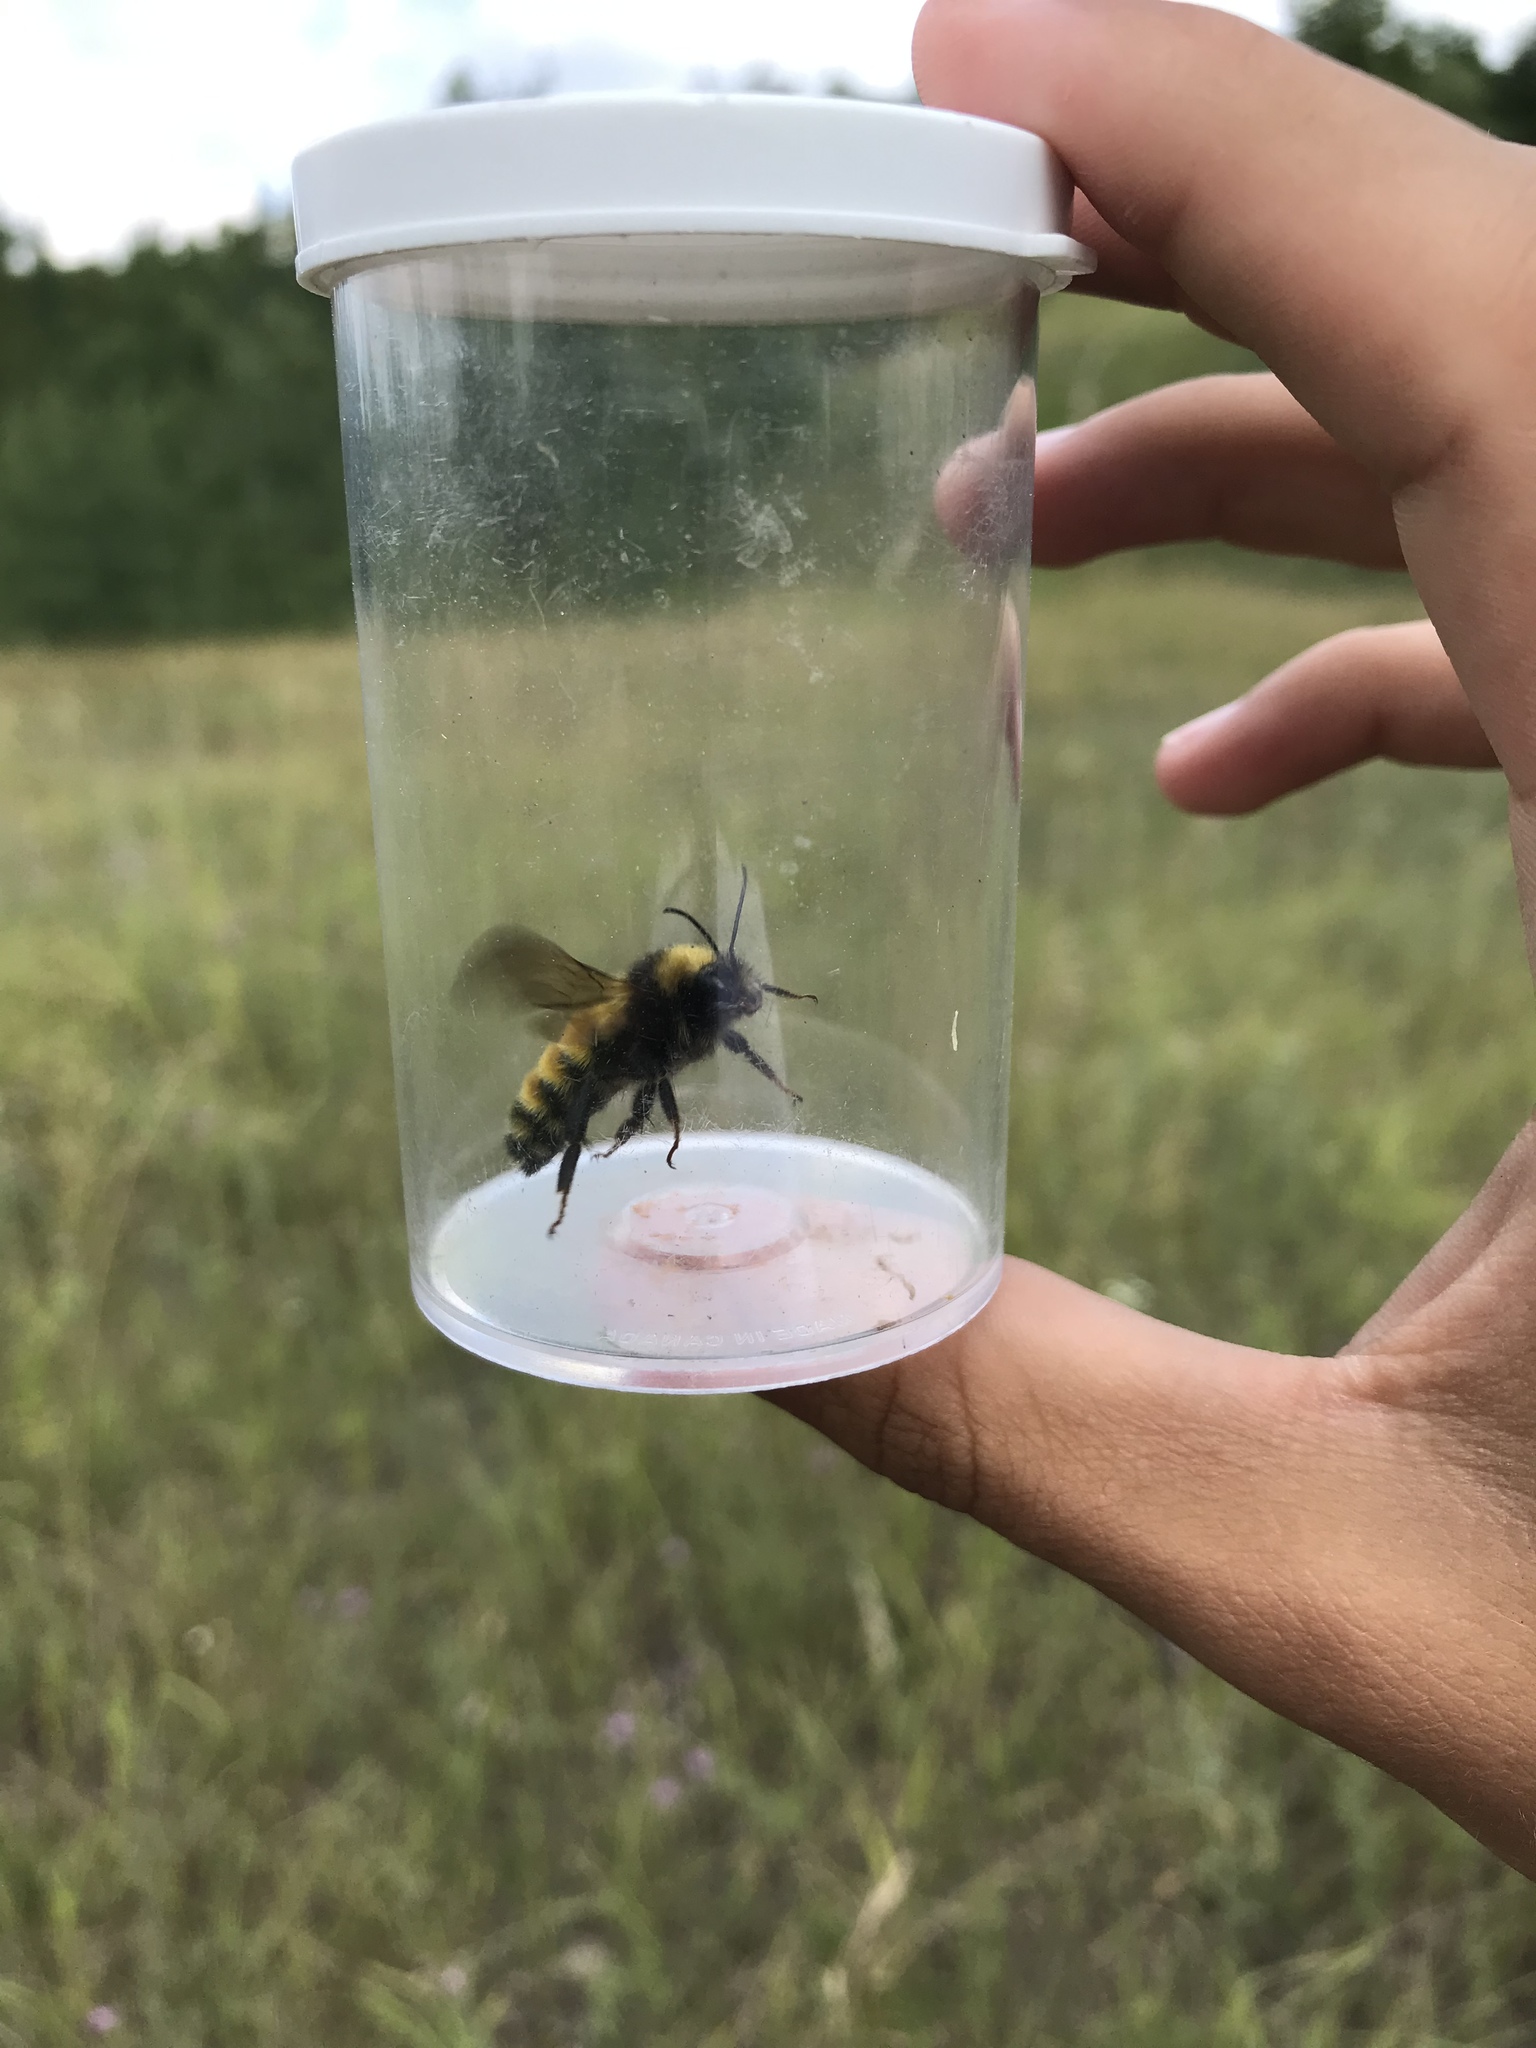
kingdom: Animalia
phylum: Arthropoda
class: Insecta
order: Hymenoptera
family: Apidae
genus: Bombus
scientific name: Bombus borealis
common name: Northern amber bumble bee
